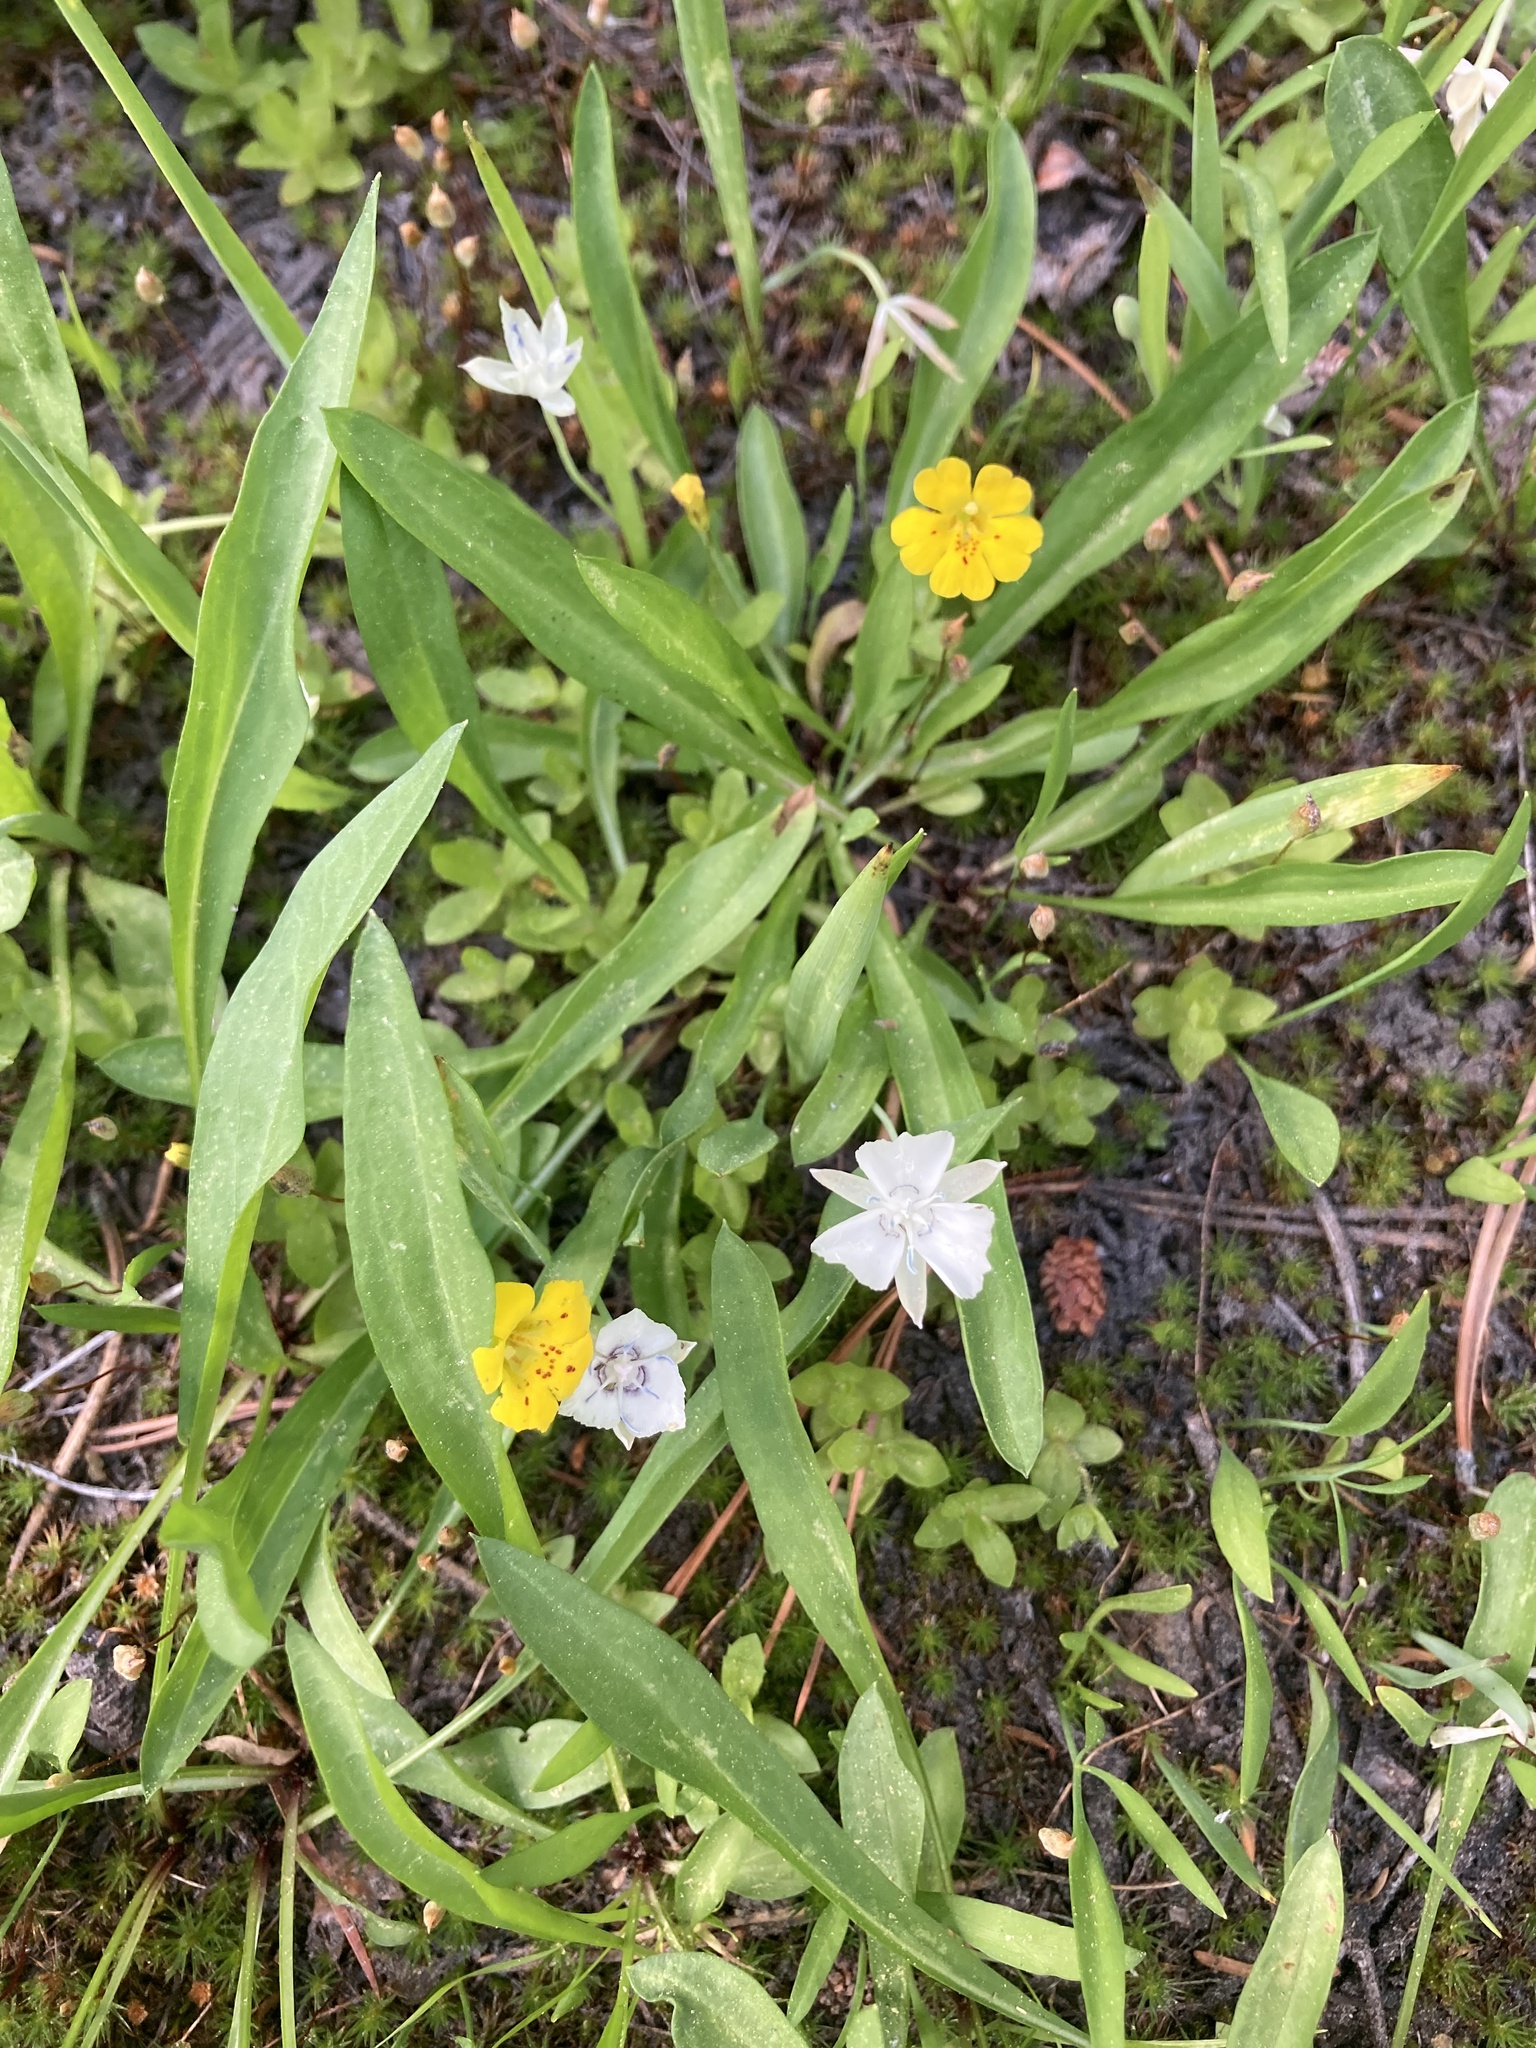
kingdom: Plantae
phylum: Tracheophyta
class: Liliopsida
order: Liliales
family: Liliaceae
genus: Calochortus
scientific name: Calochortus
